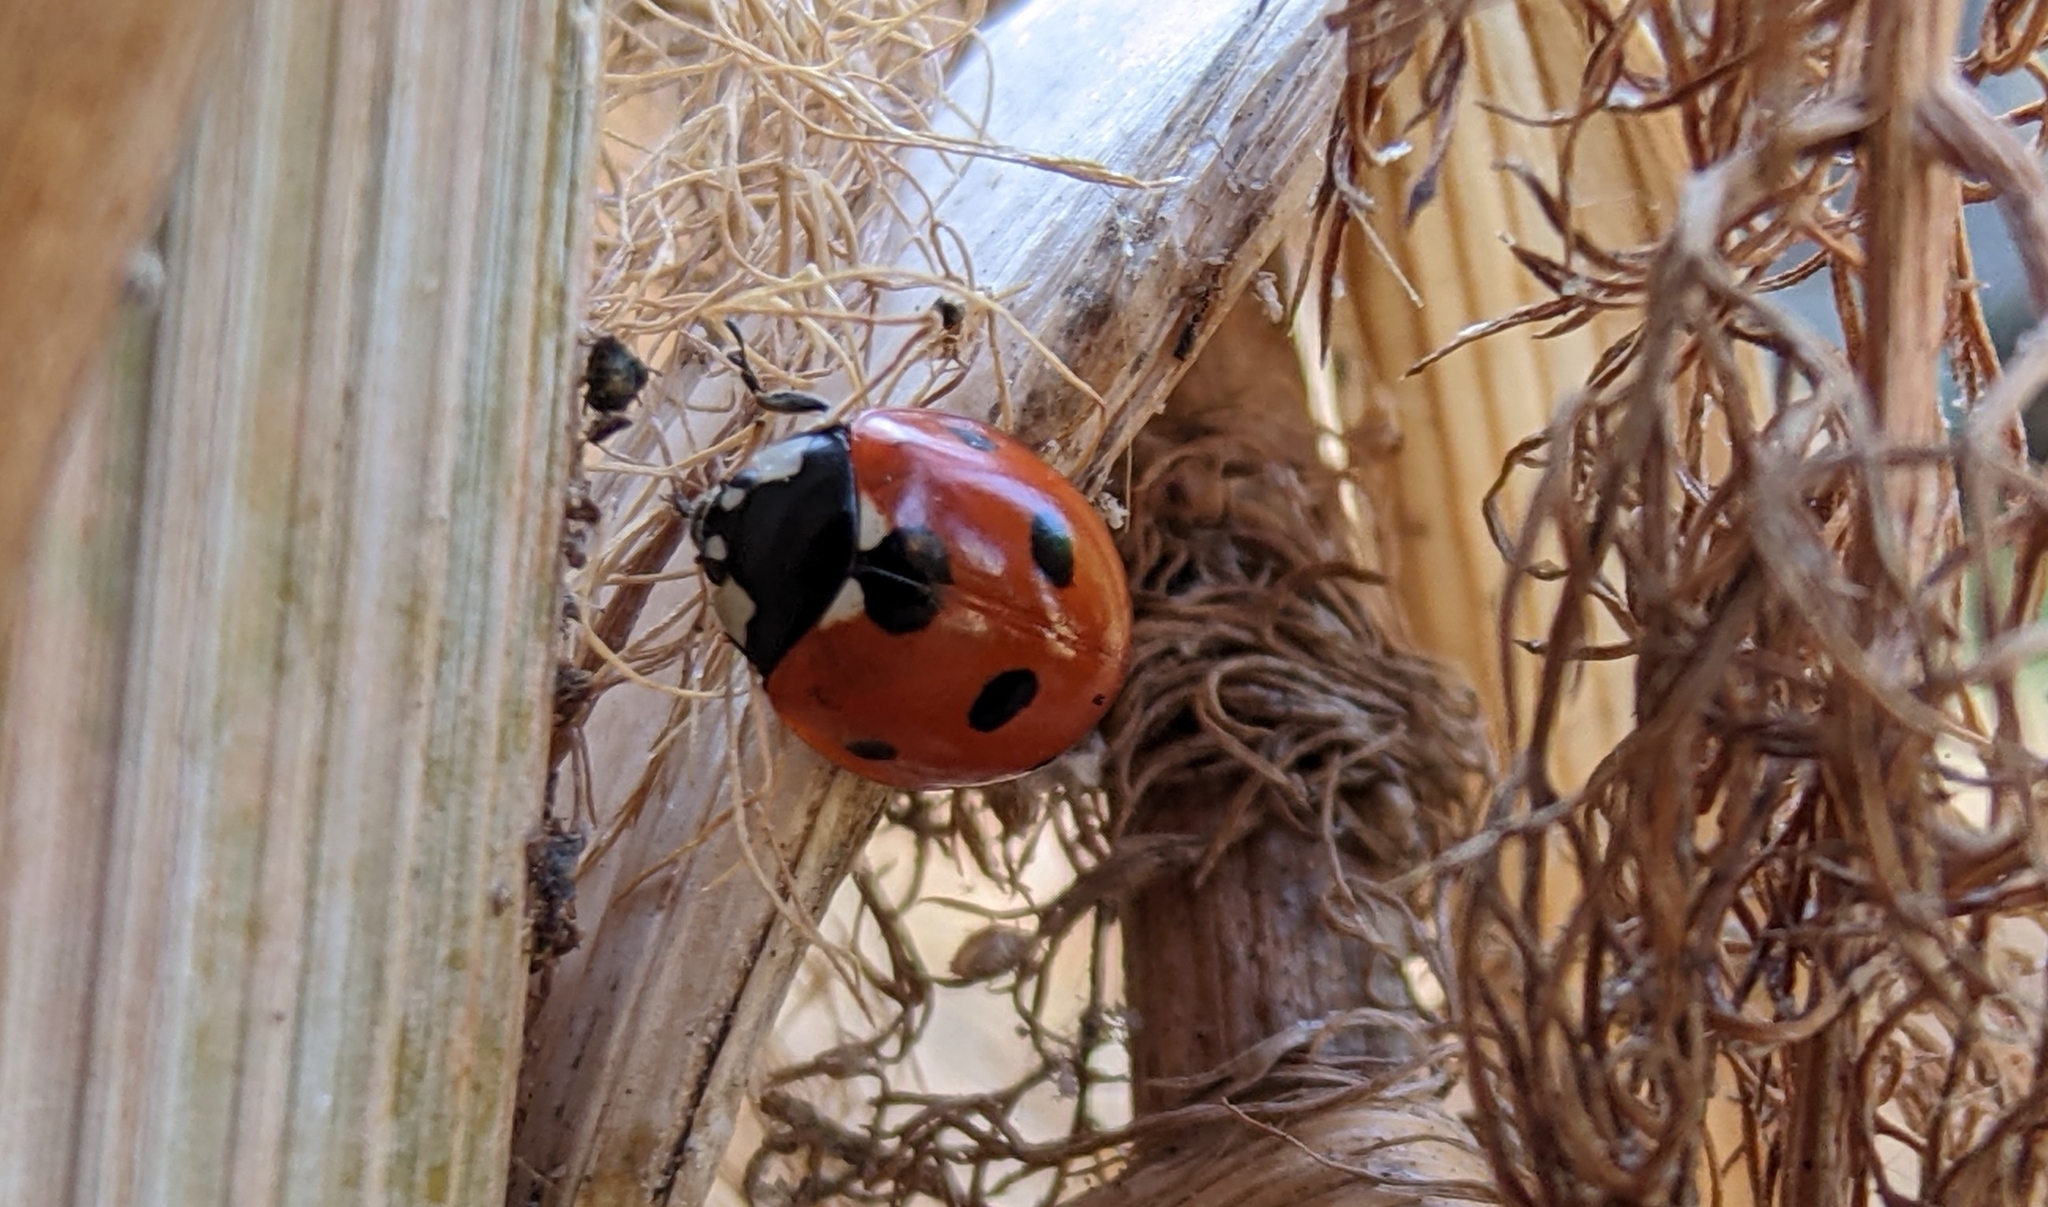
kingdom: Animalia
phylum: Arthropoda
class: Insecta
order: Coleoptera
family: Coccinellidae
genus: Coccinella
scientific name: Coccinella septempunctata
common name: Sevenspotted lady beetle
